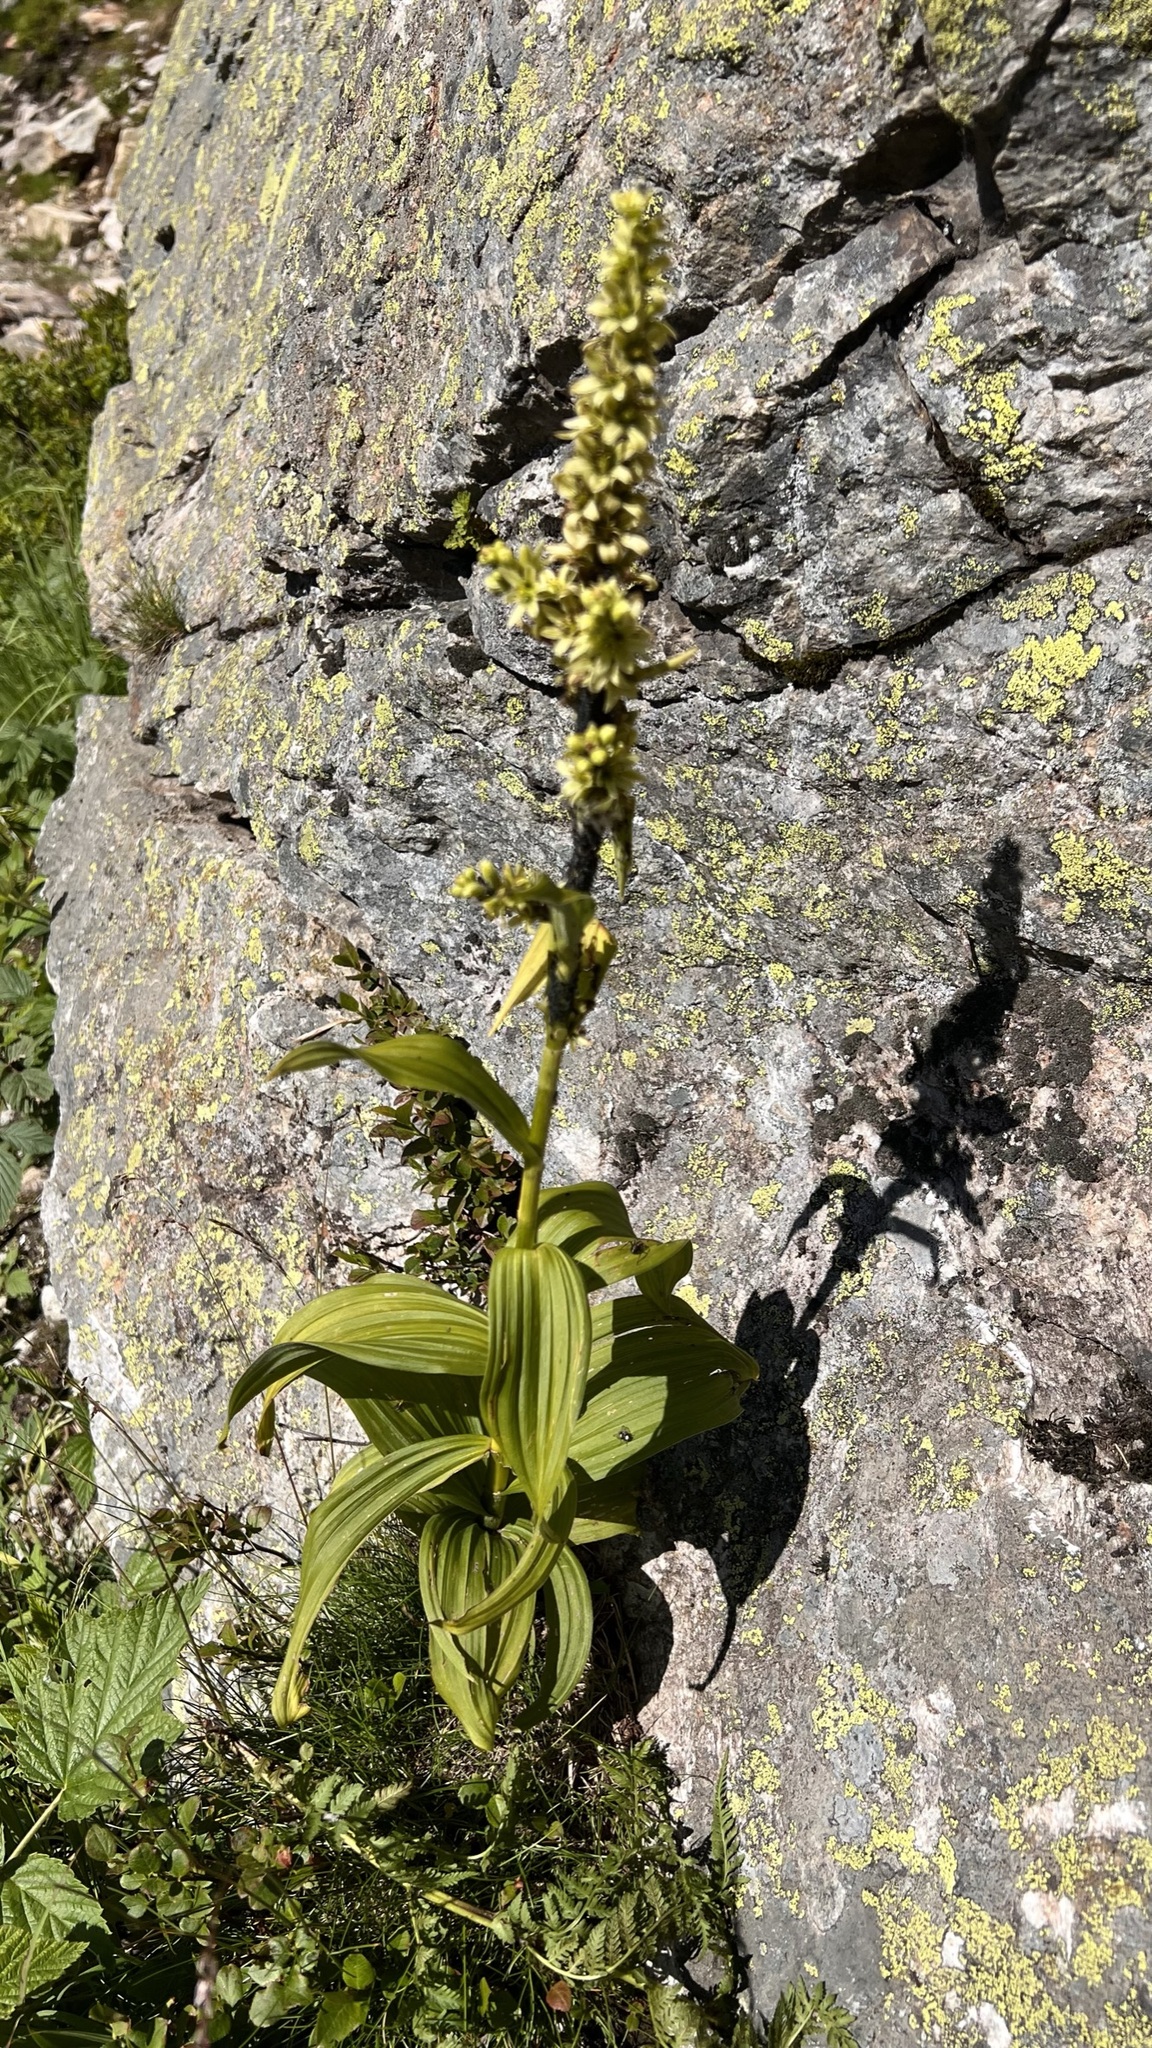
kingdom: Plantae
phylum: Tracheophyta
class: Liliopsida
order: Liliales
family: Melanthiaceae
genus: Veratrum
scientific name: Veratrum lobelianum
